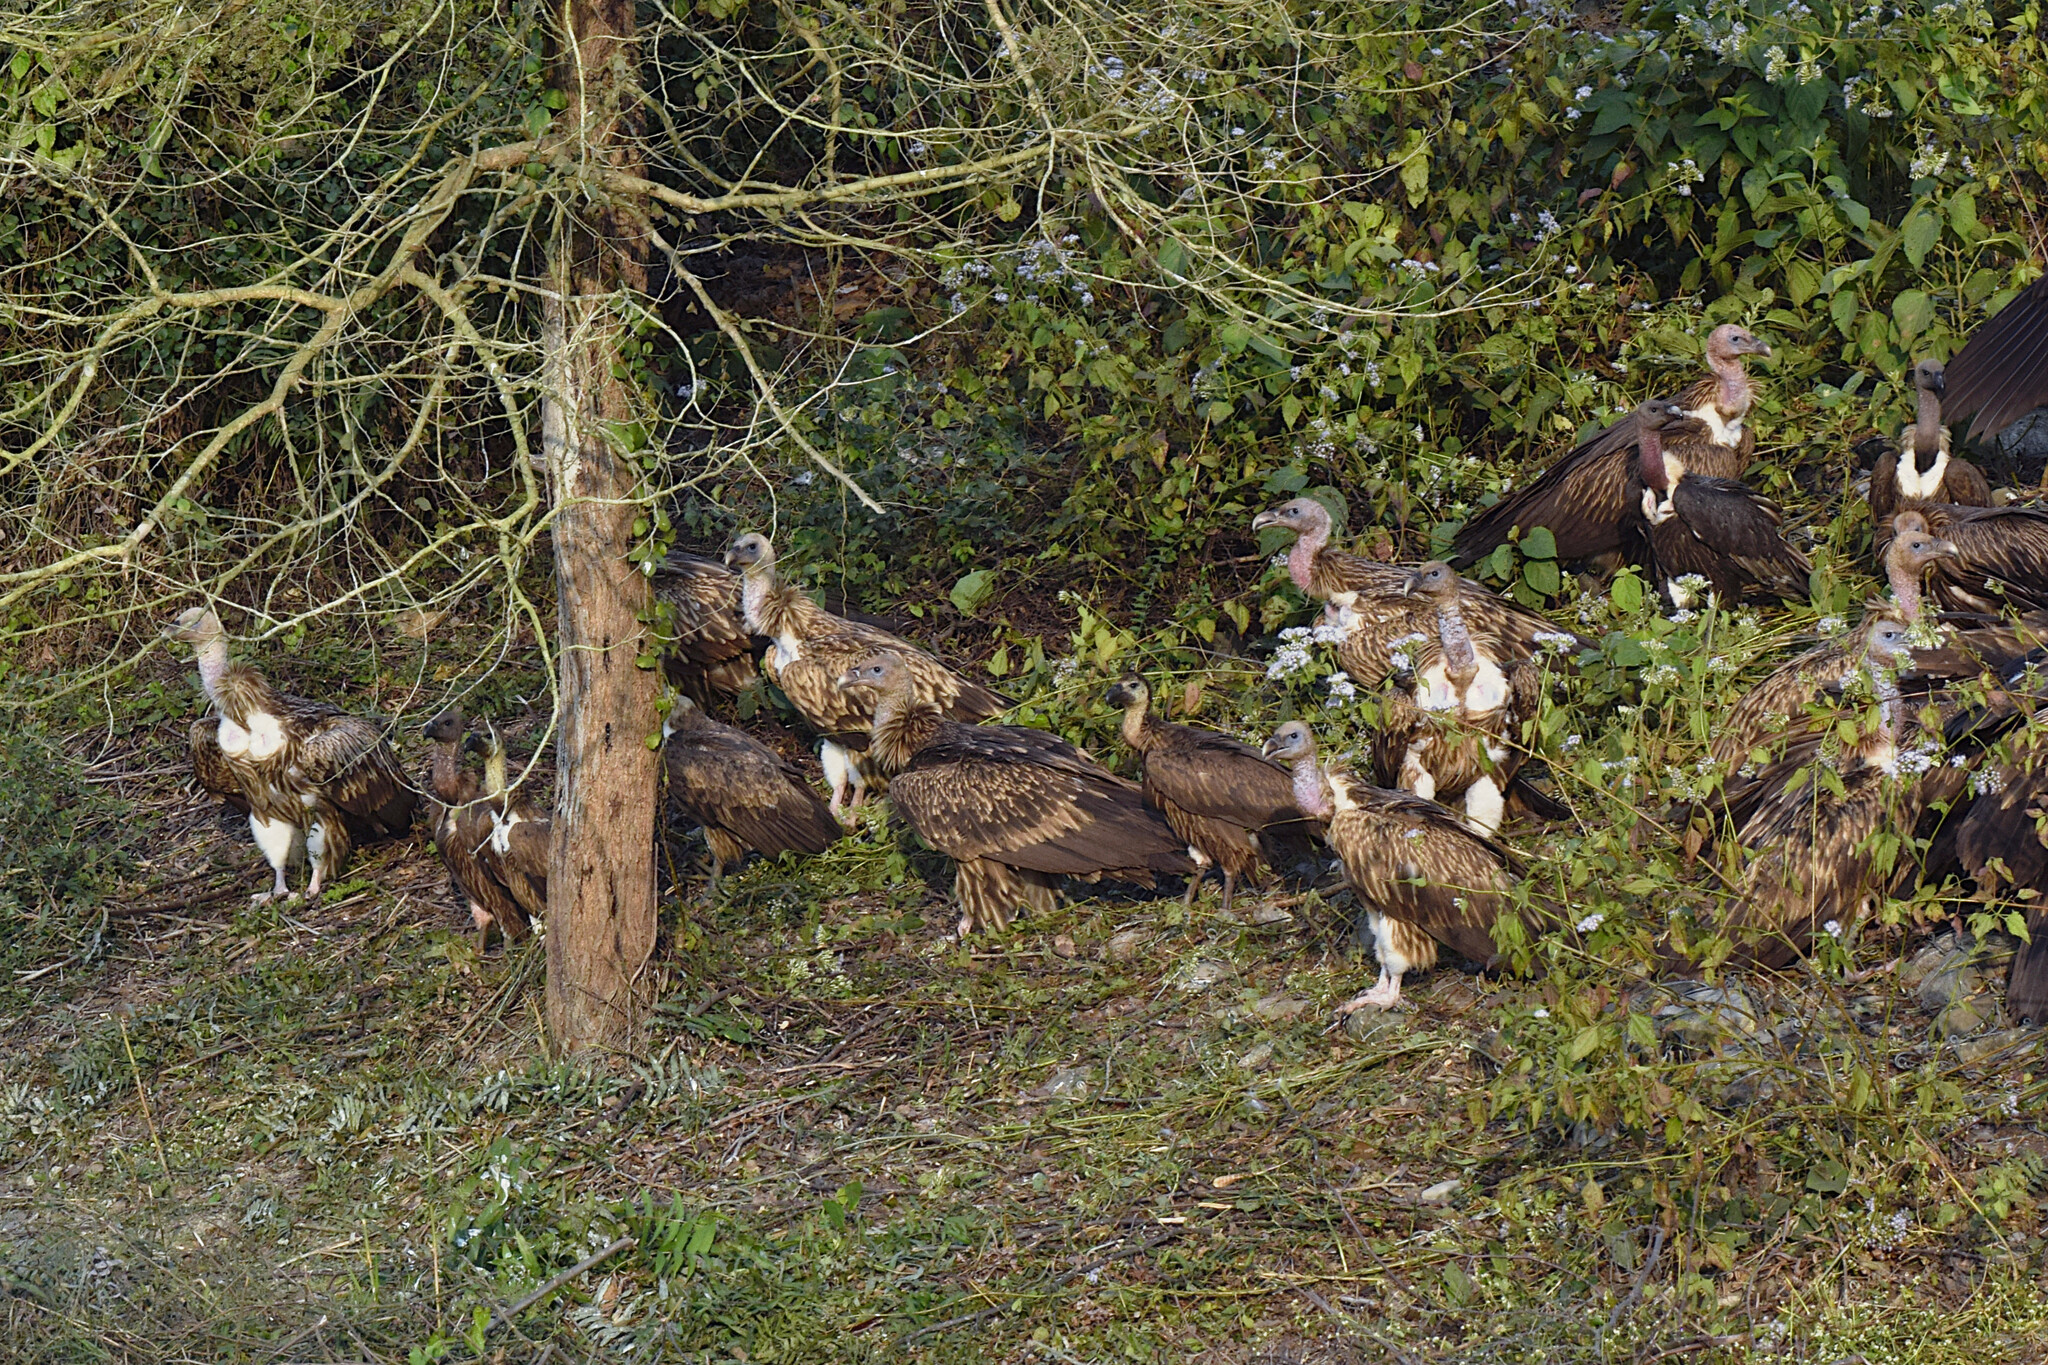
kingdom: Animalia
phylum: Chordata
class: Aves
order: Accipitriformes
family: Accipitridae
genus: Gyps
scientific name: Gyps himalayensis
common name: Himalayan griffon
